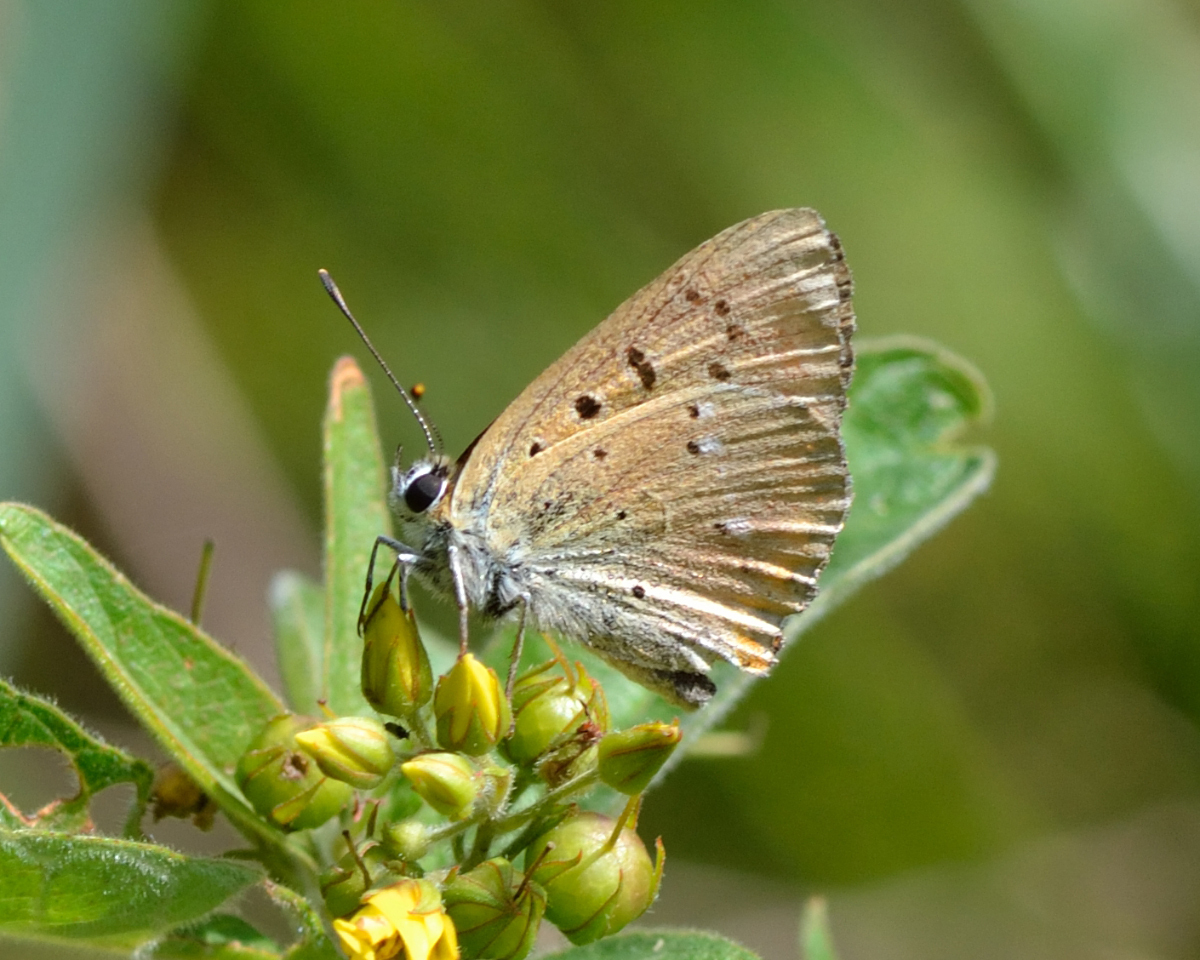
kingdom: Animalia
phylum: Arthropoda
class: Insecta
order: Lepidoptera
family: Lycaenidae
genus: Lycaena
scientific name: Lycaena virgaureae
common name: Scarce copper
